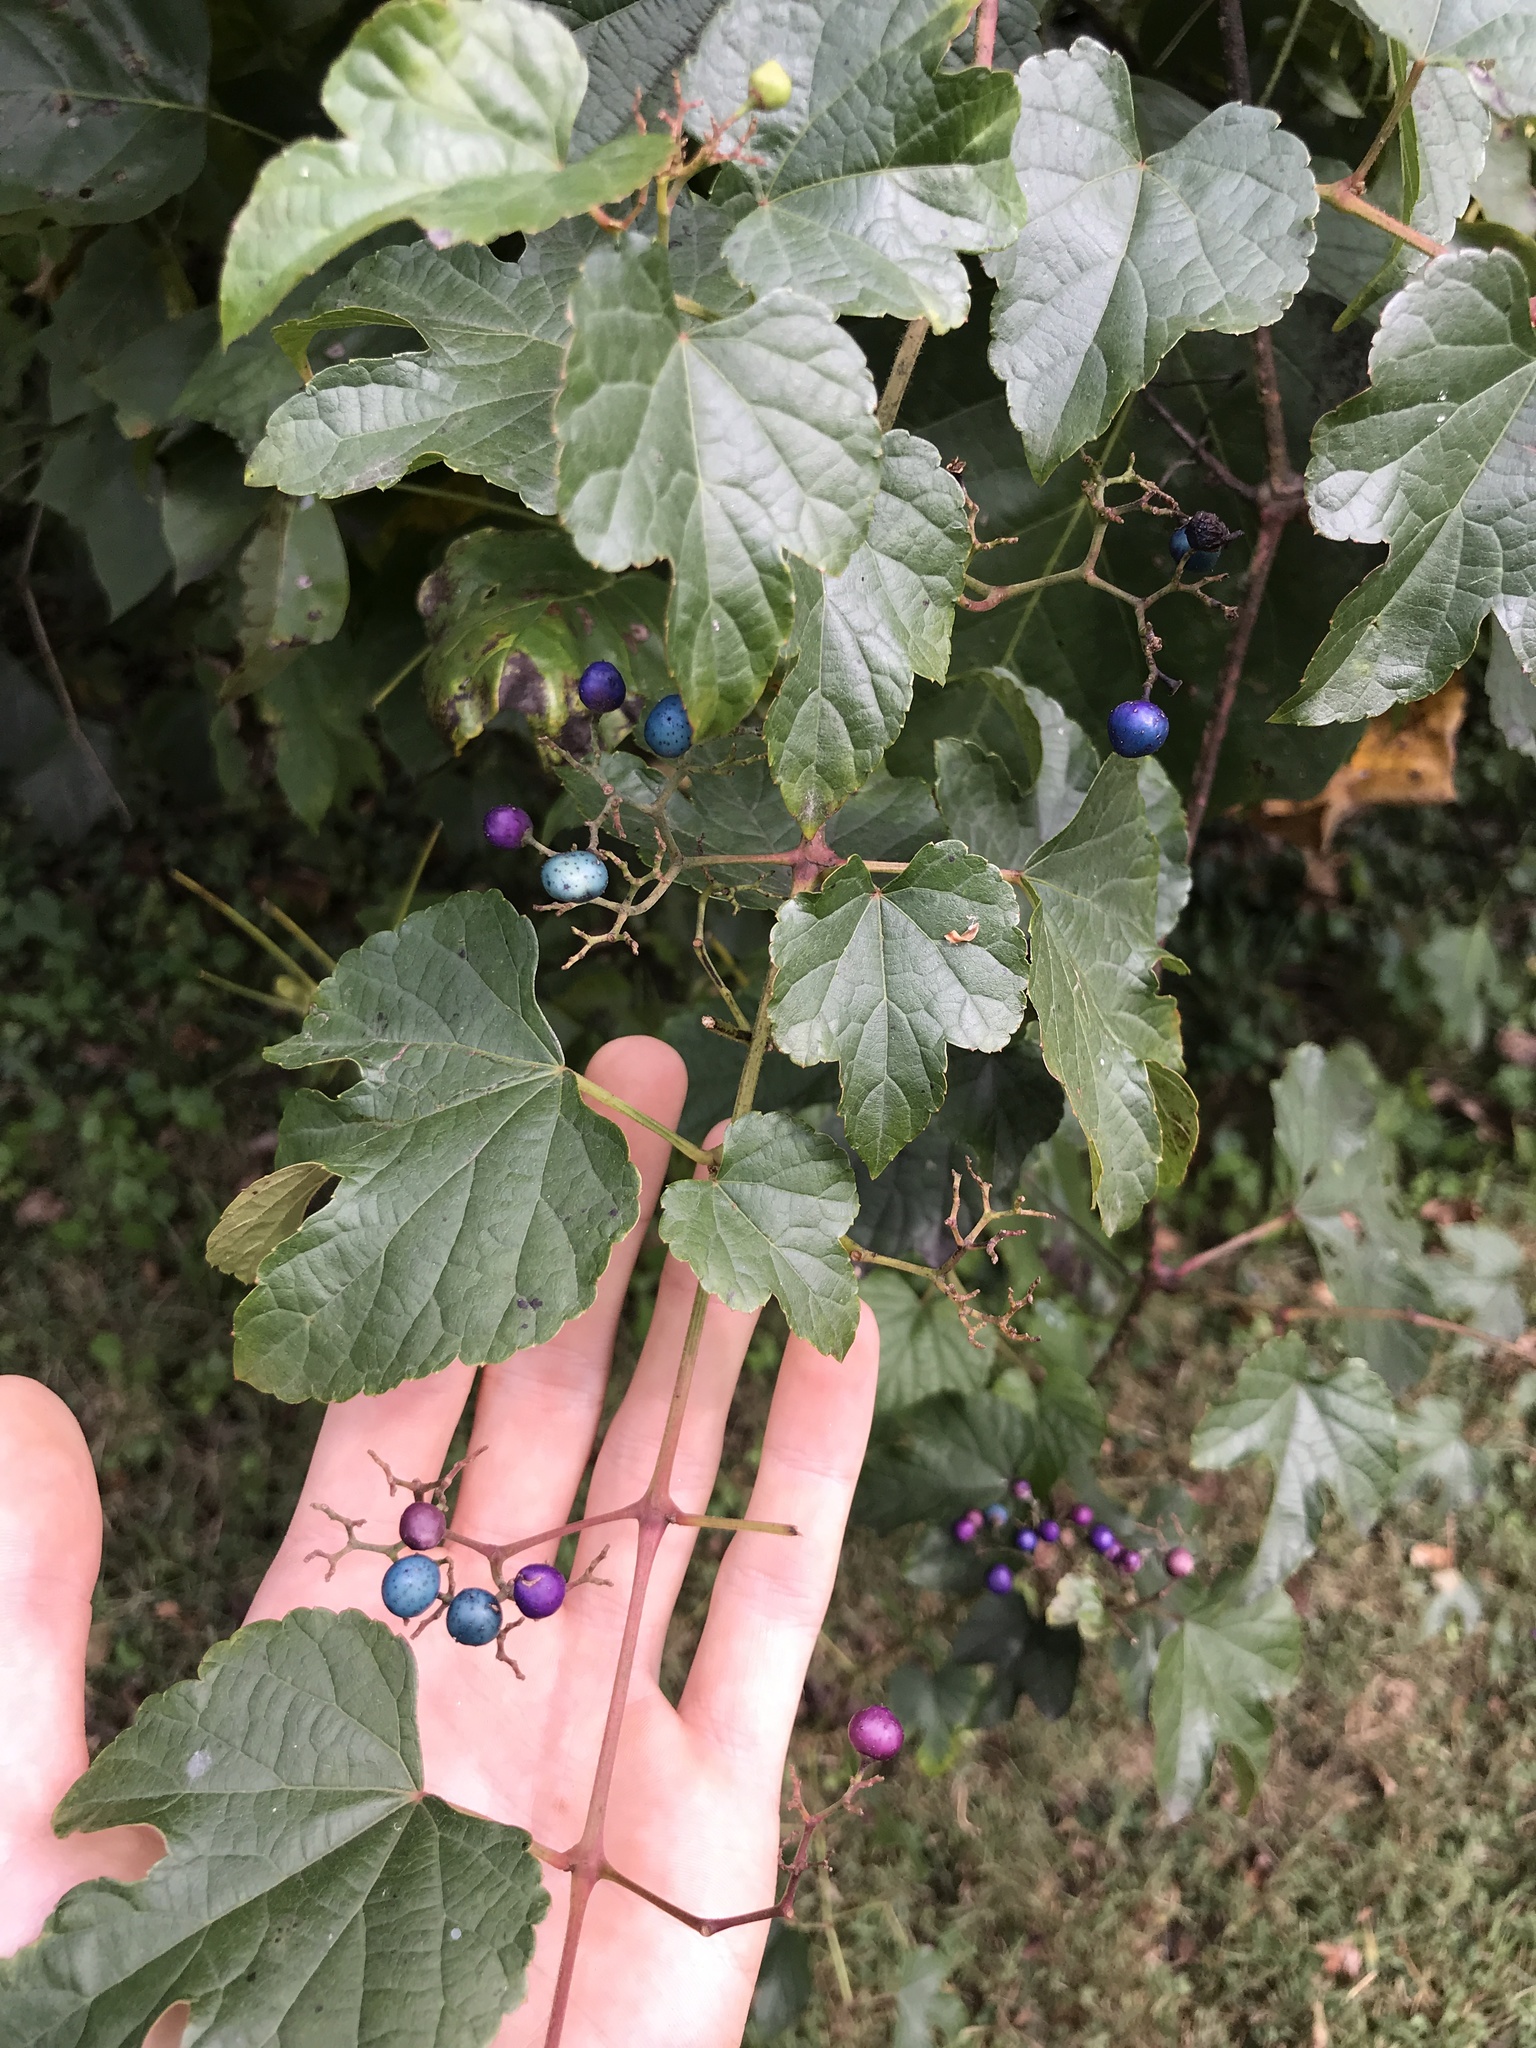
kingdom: Plantae
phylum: Tracheophyta
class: Magnoliopsida
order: Vitales
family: Vitaceae
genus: Ampelopsis
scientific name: Ampelopsis glandulosa
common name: Amur peppervine
